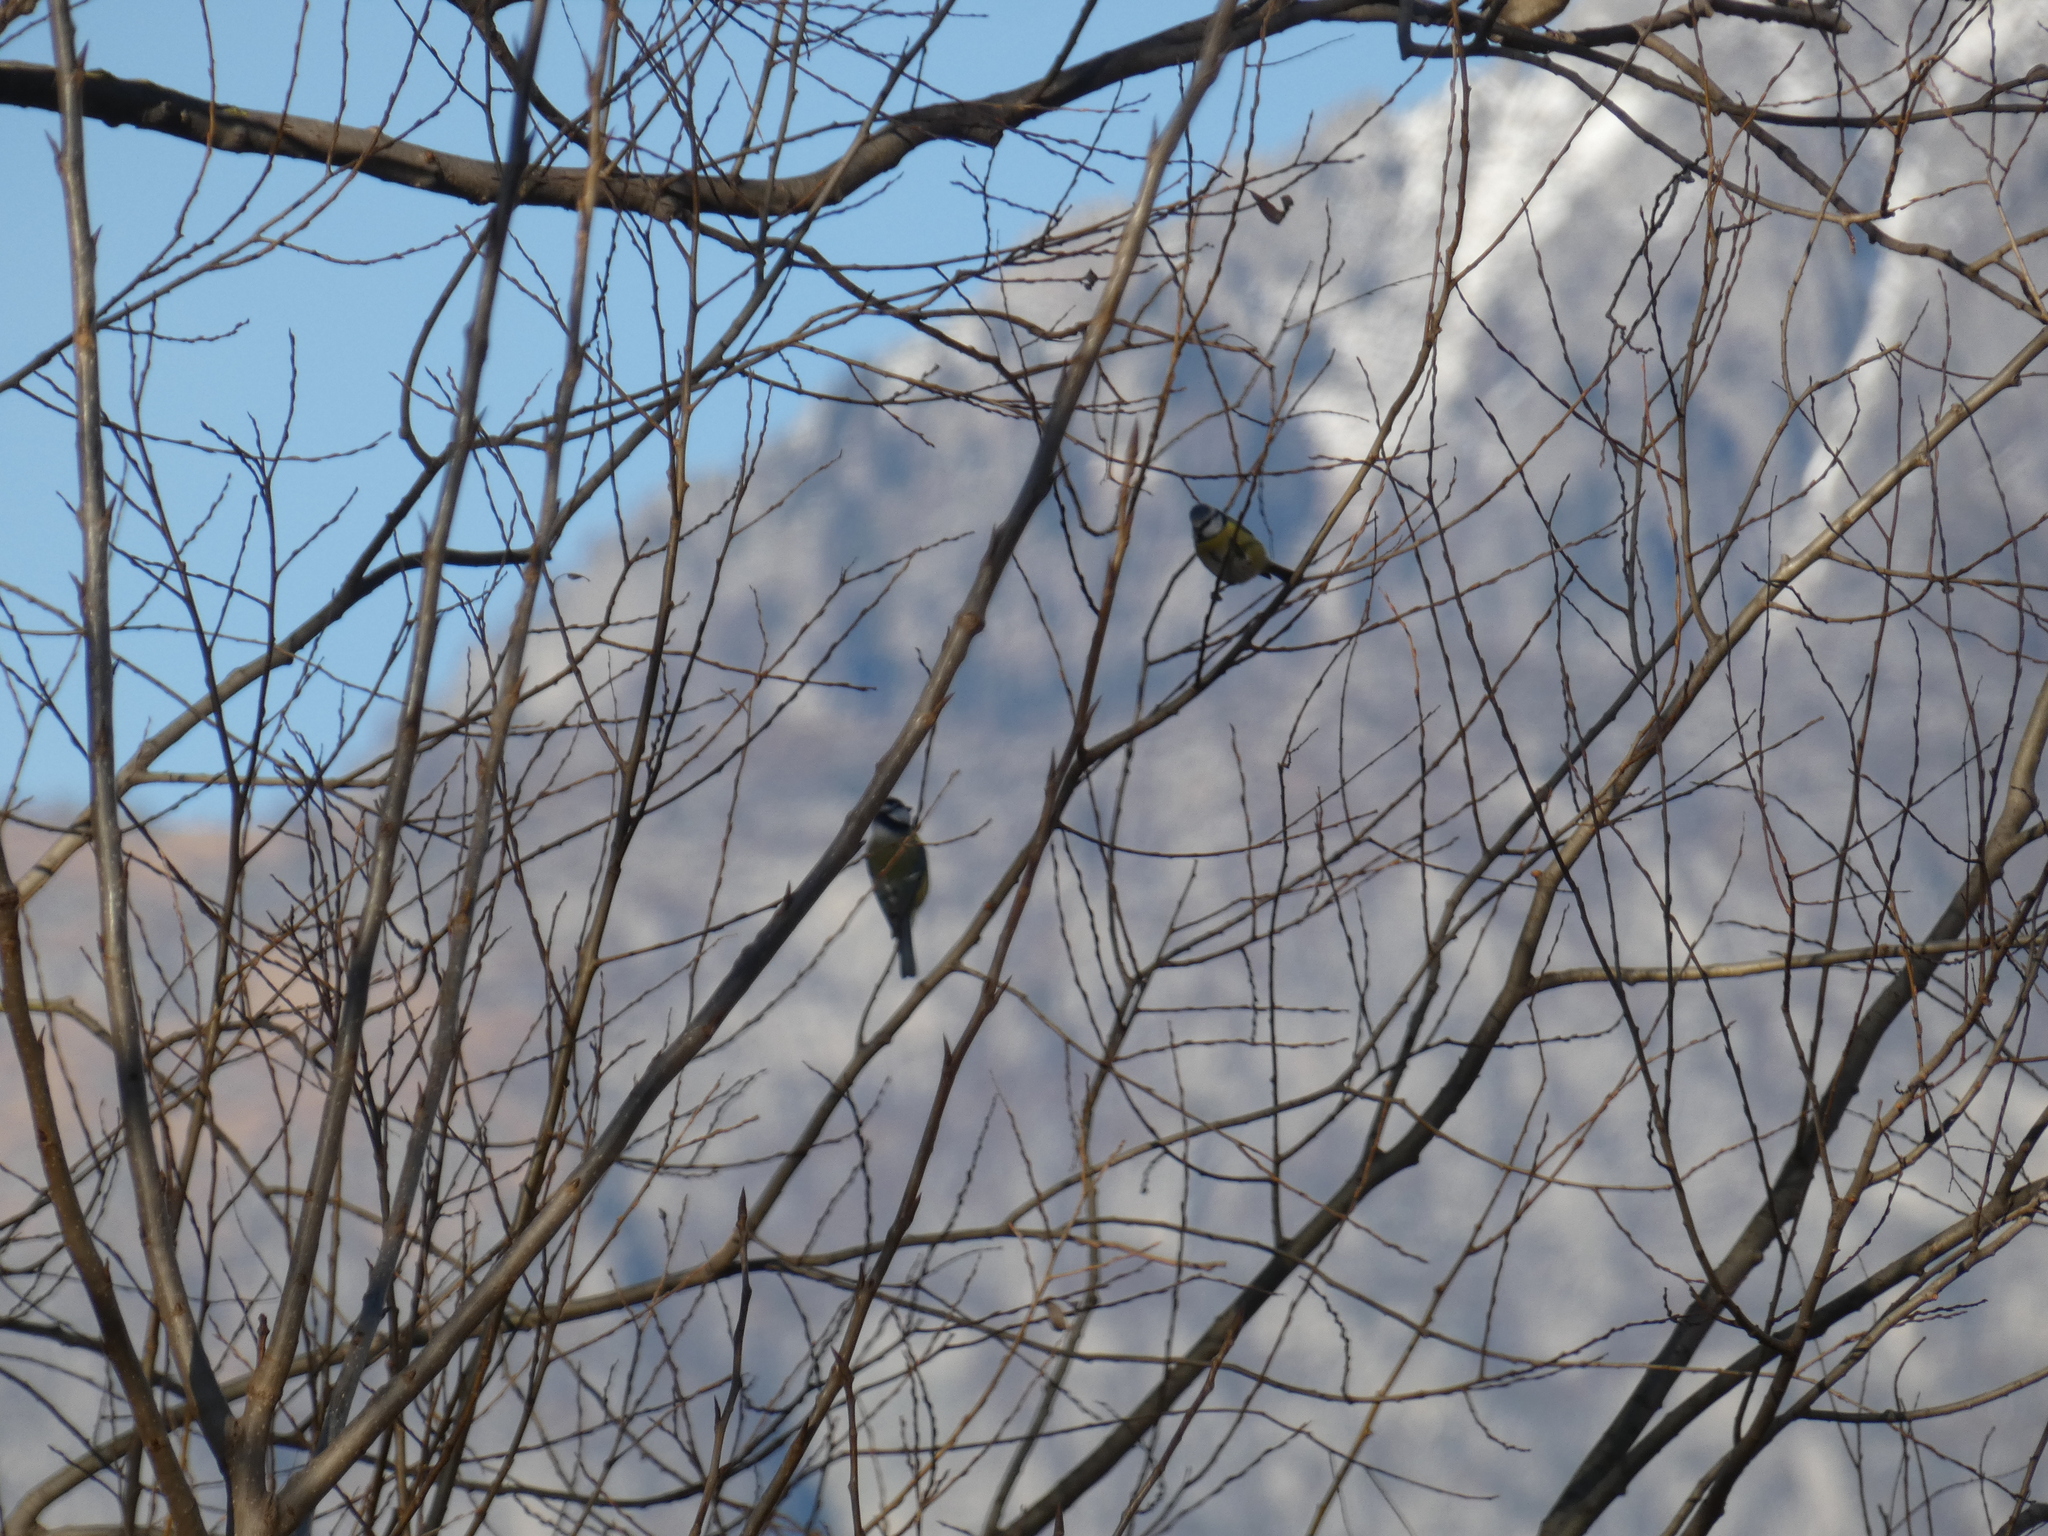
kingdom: Animalia
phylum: Chordata
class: Aves
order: Passeriformes
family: Paridae
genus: Cyanistes
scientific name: Cyanistes caeruleus
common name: Eurasian blue tit
